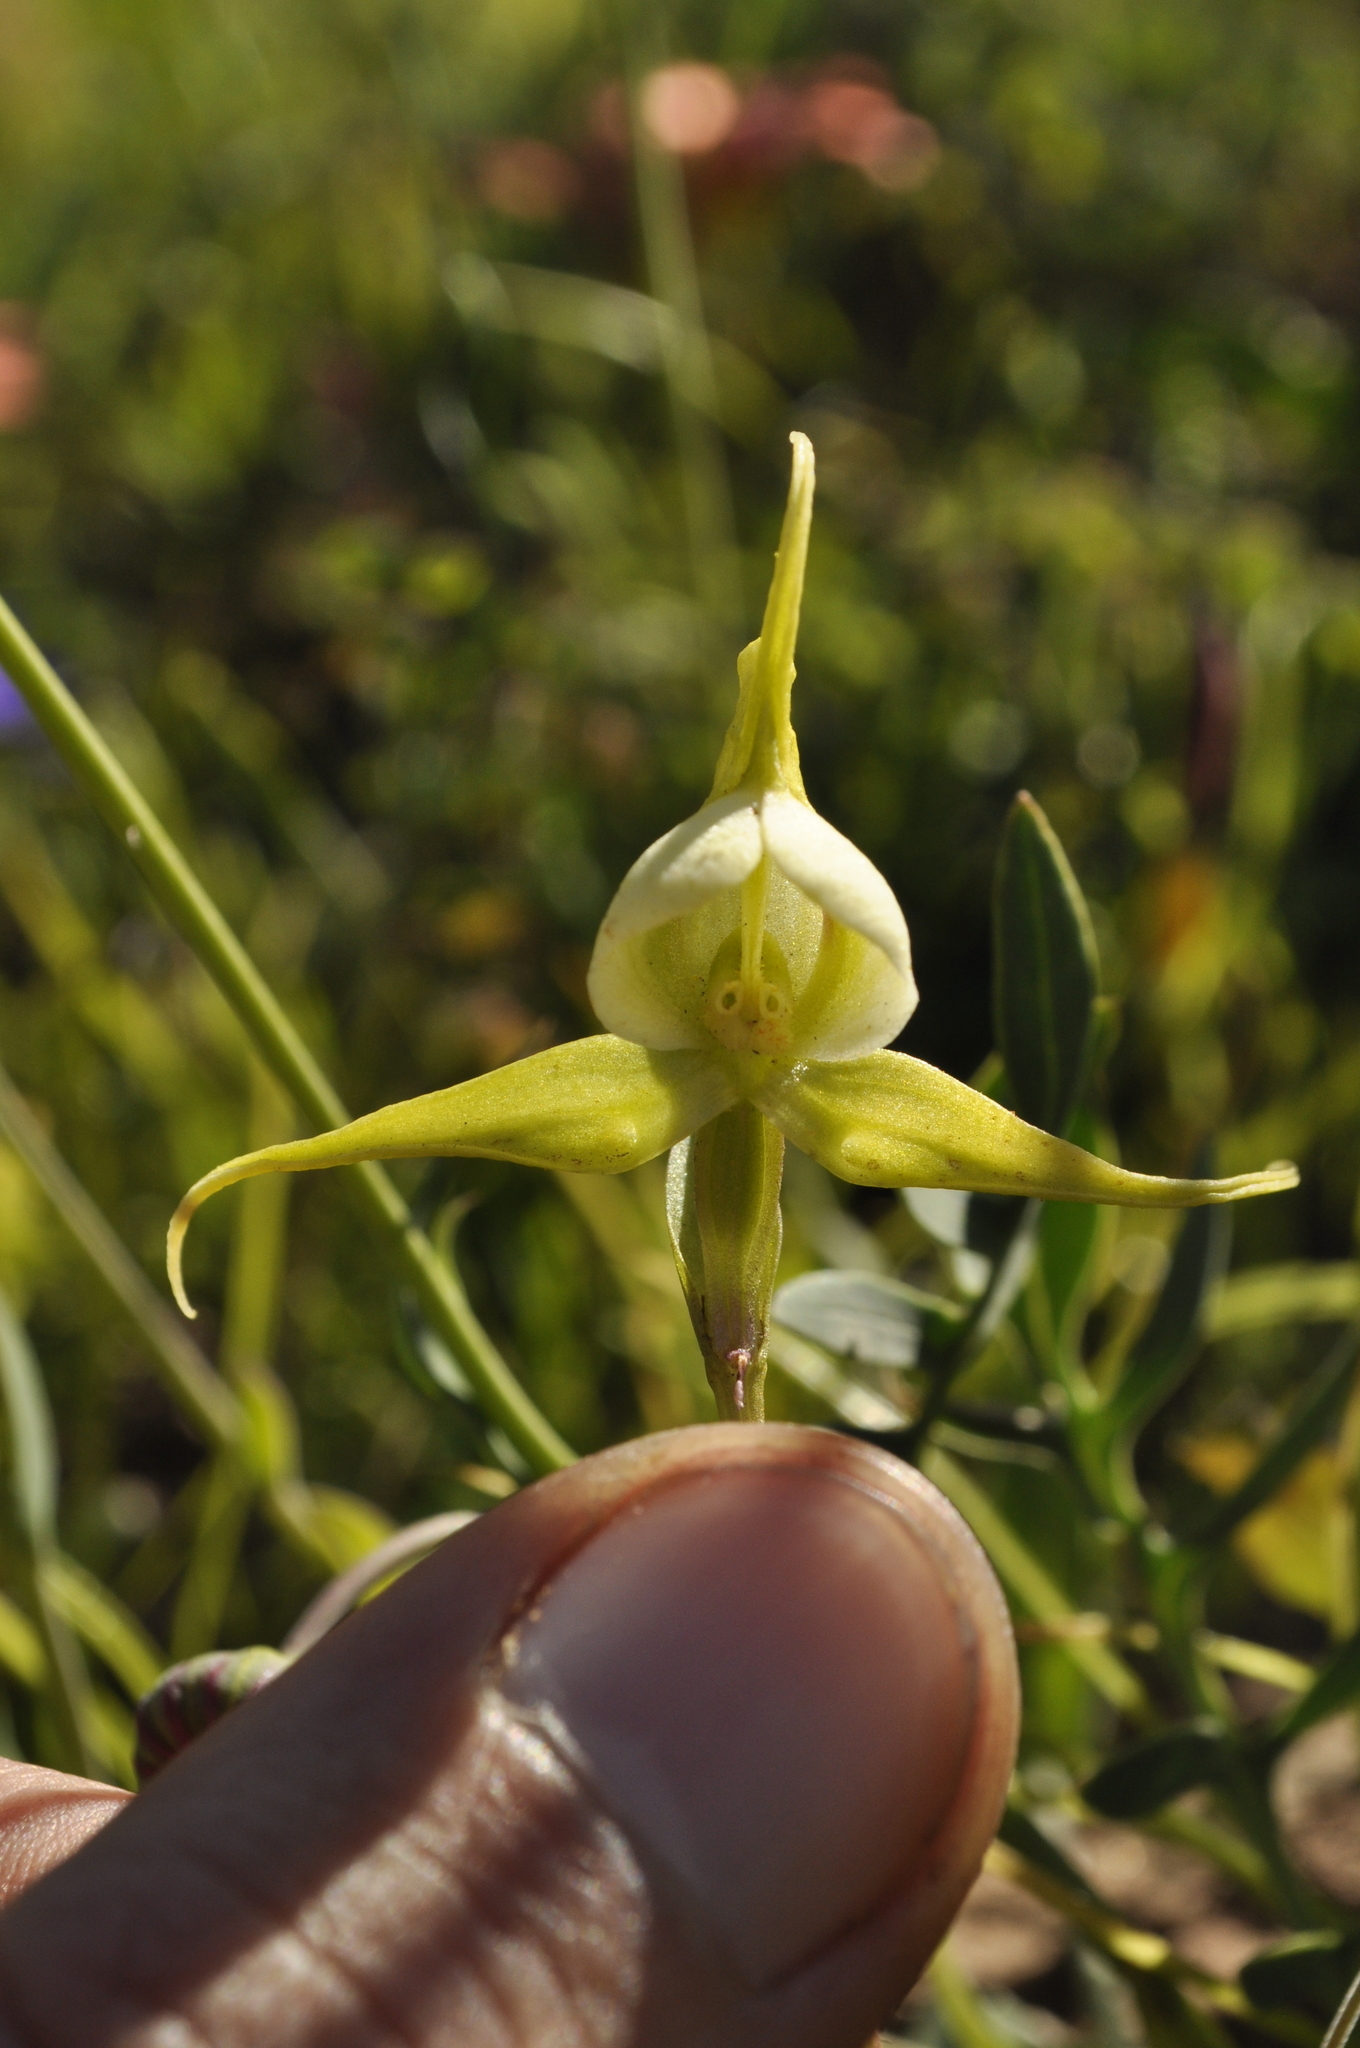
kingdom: Plantae
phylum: Tracheophyta
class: Liliopsida
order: Asparagales
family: Orchidaceae
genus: Disperis
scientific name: Disperis capensis
